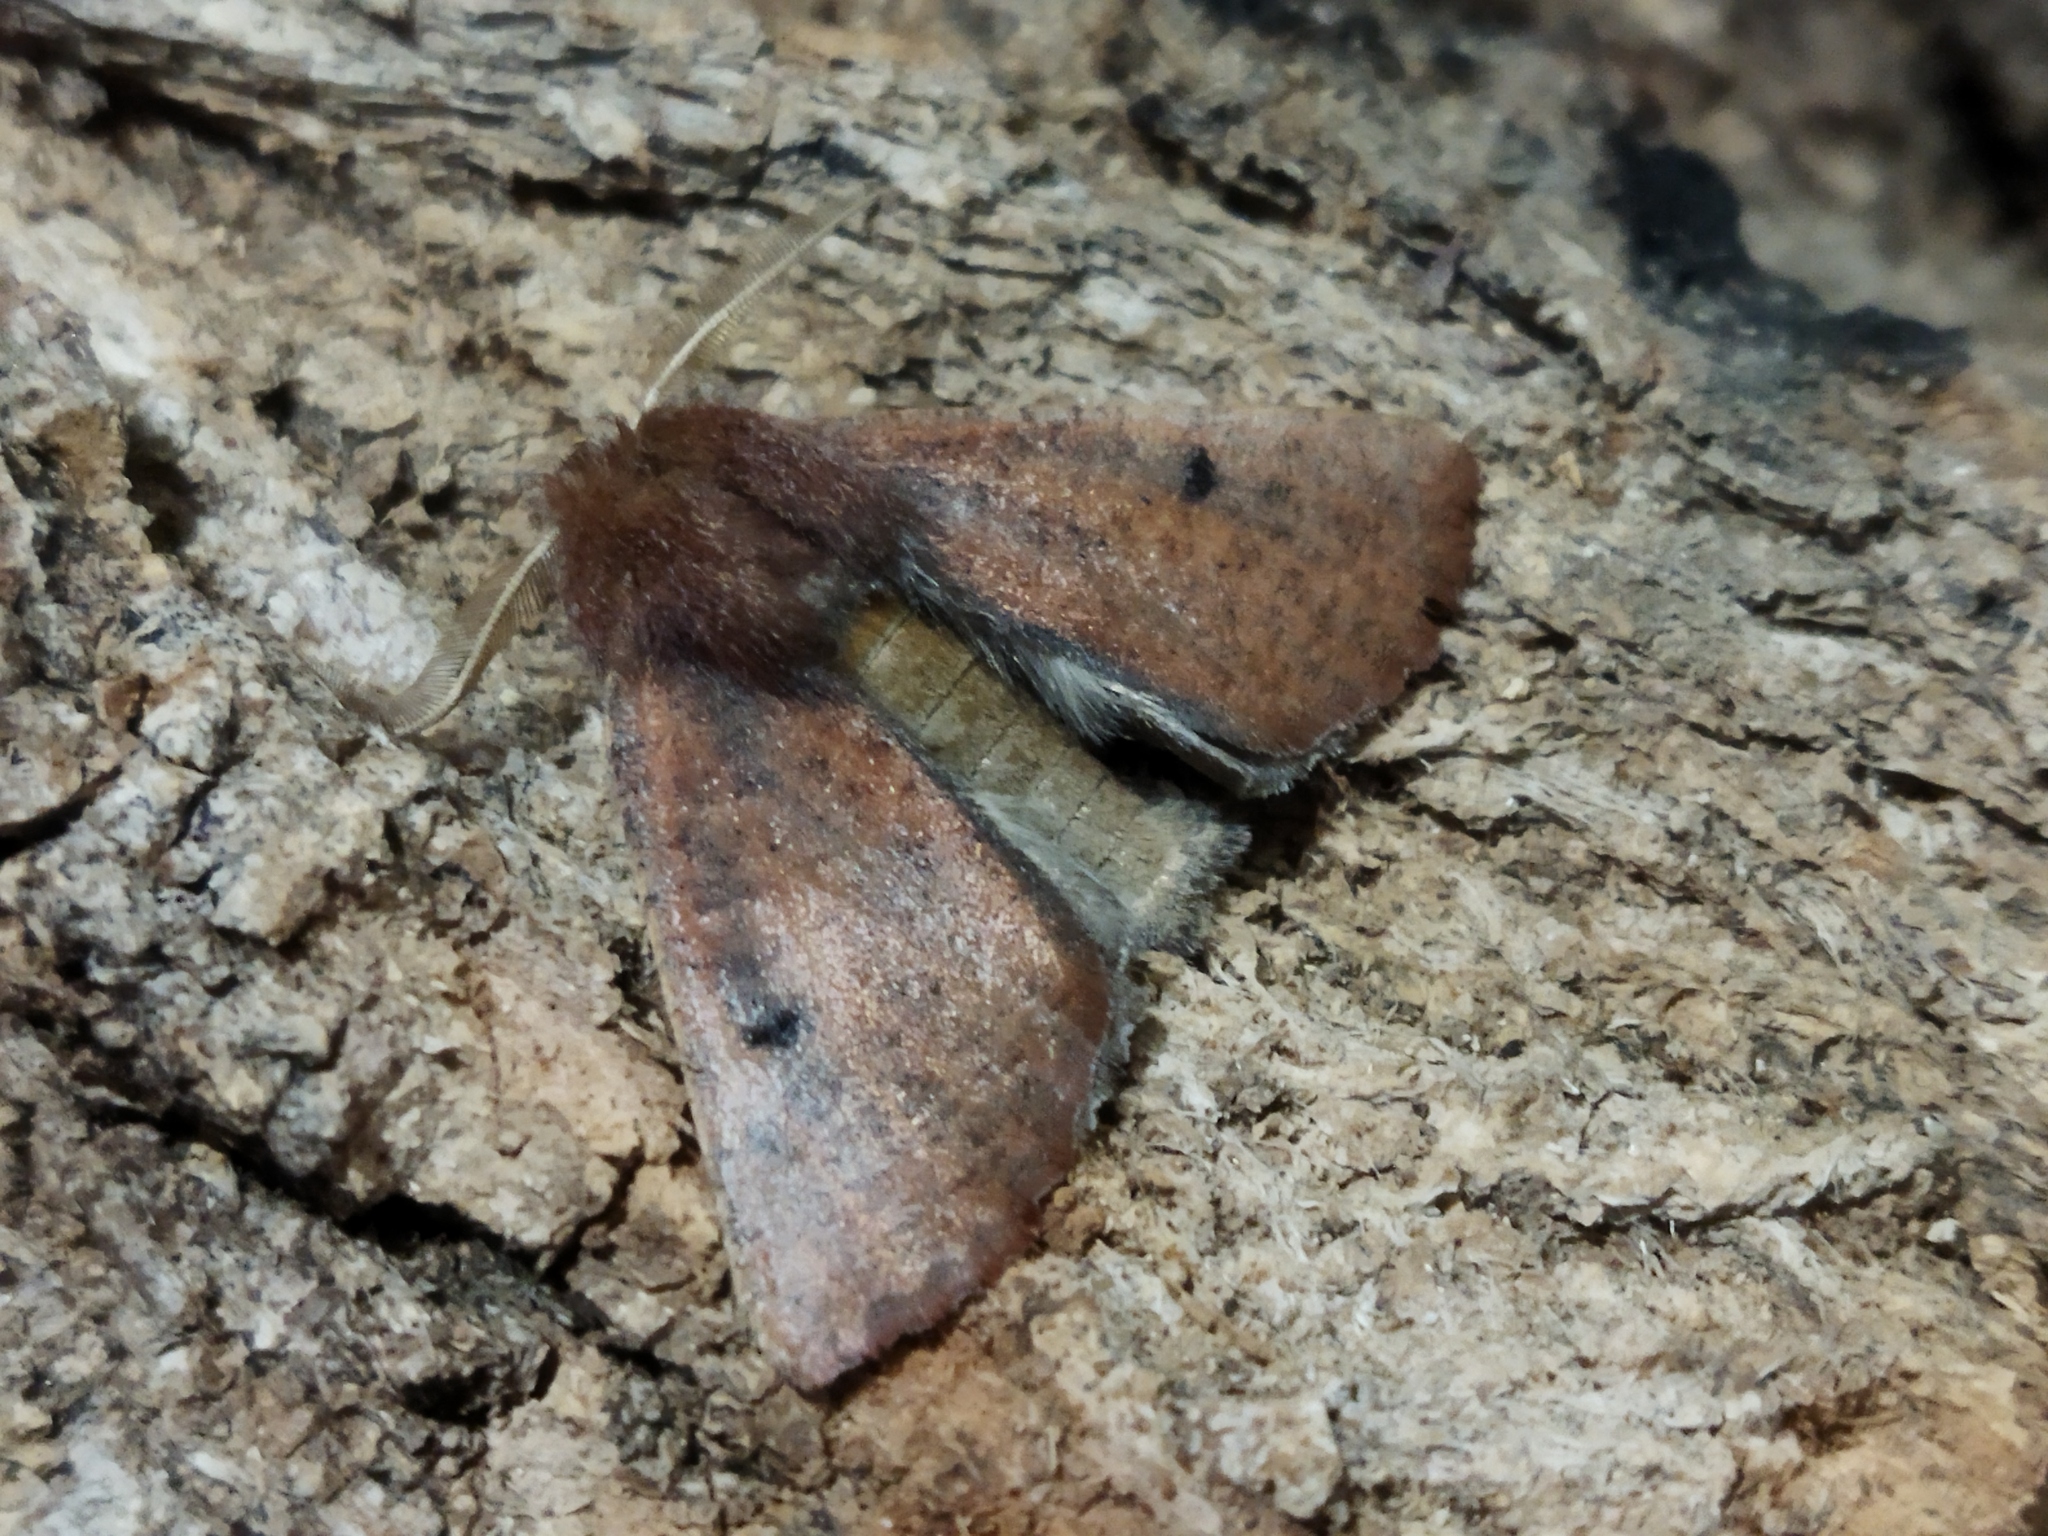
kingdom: Animalia
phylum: Arthropoda
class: Insecta
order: Lepidoptera
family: Geometridae
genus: Dasycorsa
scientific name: Dasycorsa modesta
